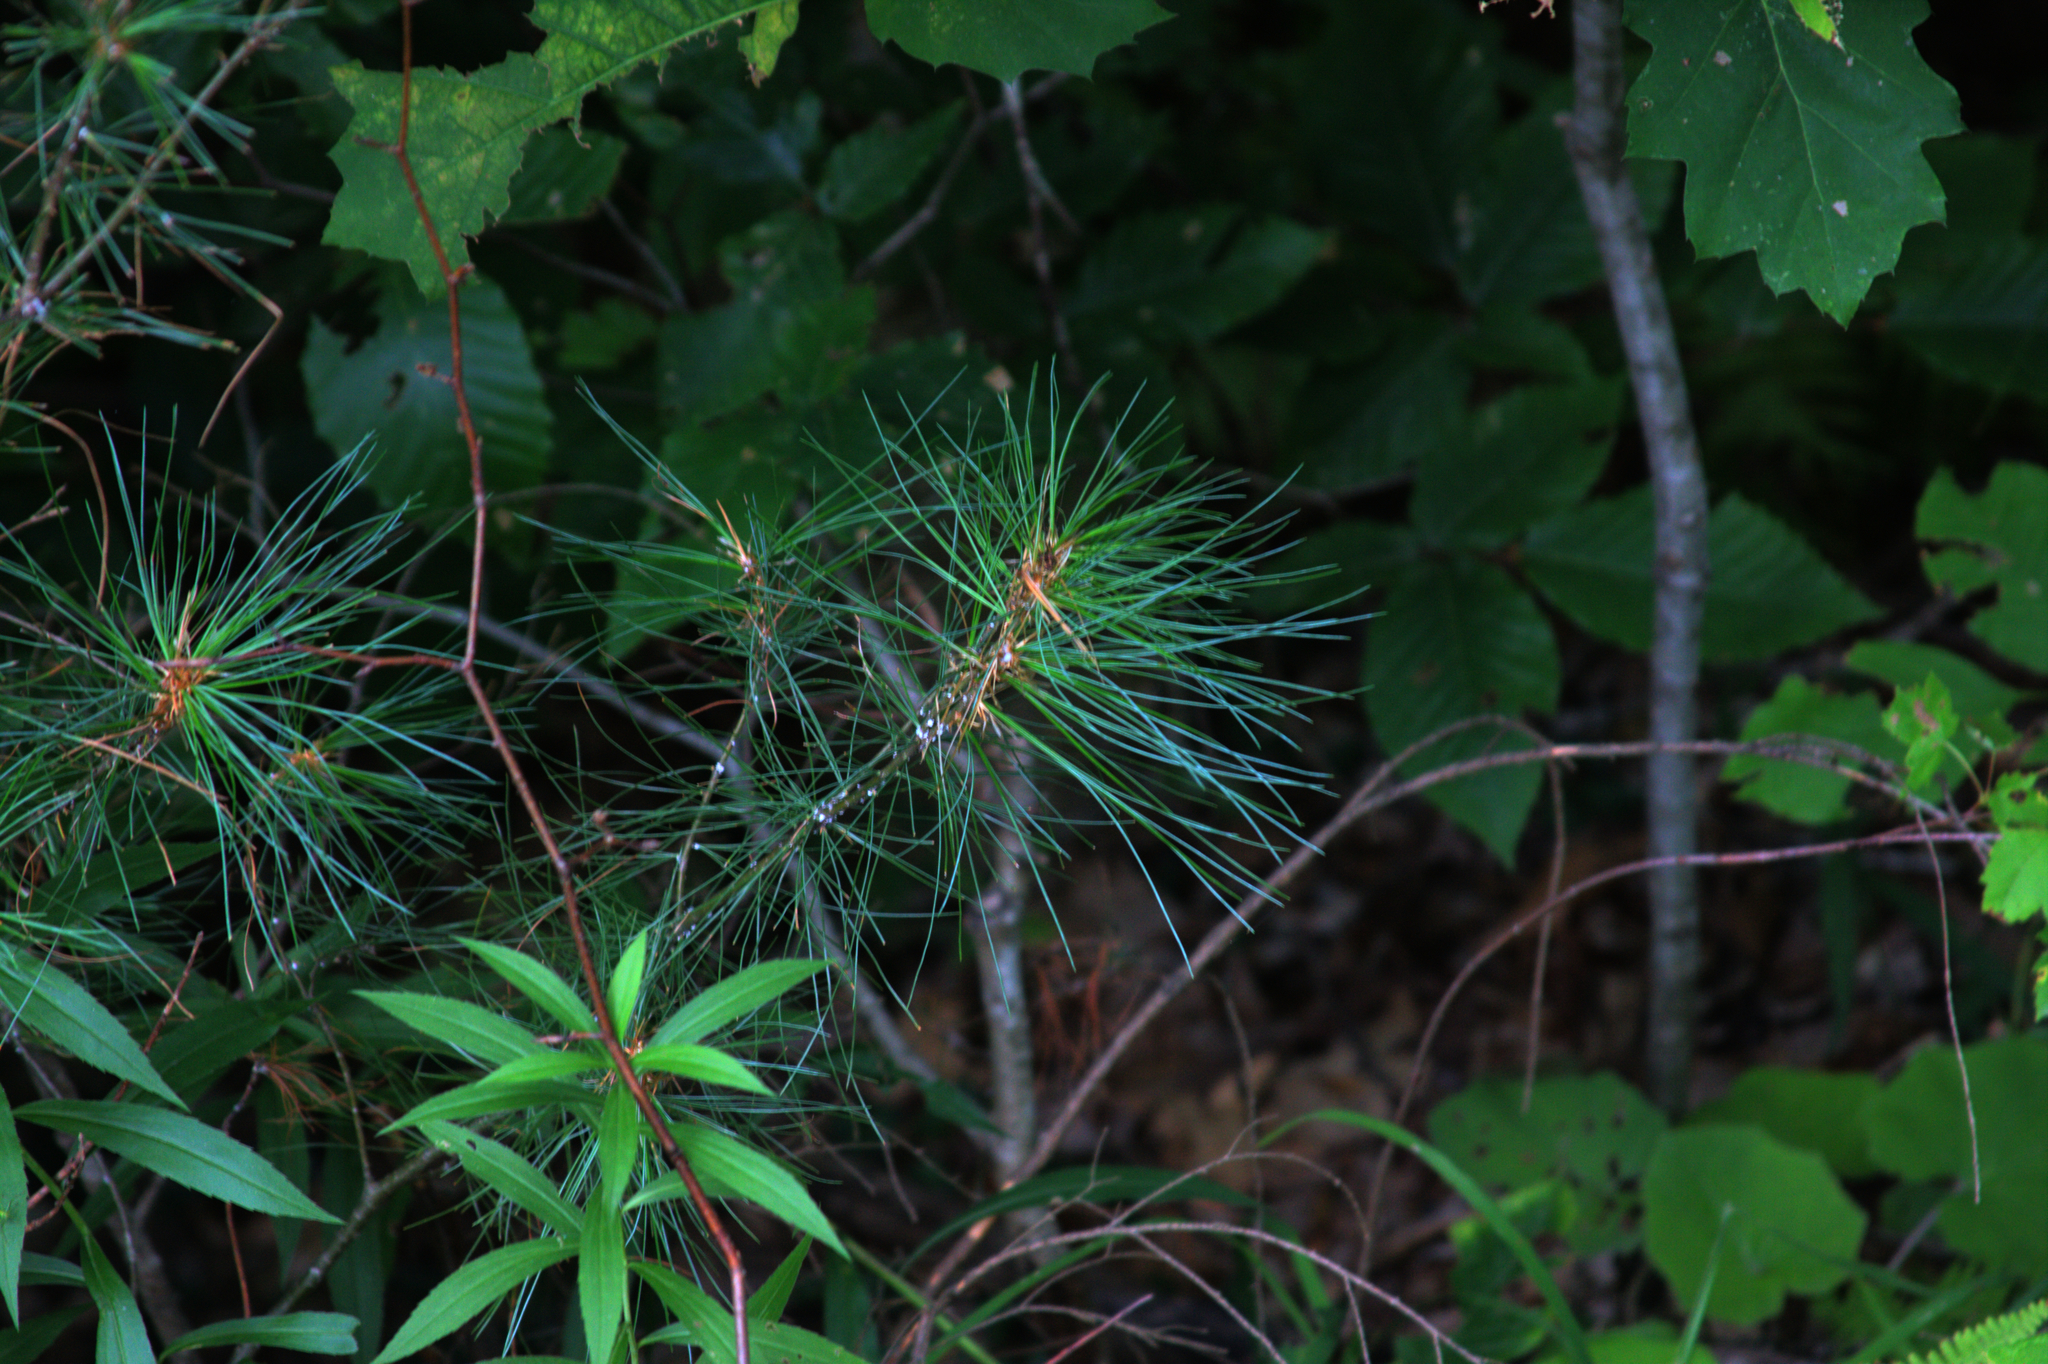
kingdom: Plantae
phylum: Tracheophyta
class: Pinopsida
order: Pinales
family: Pinaceae
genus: Pinus
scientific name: Pinus strobus
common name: Weymouth pine
